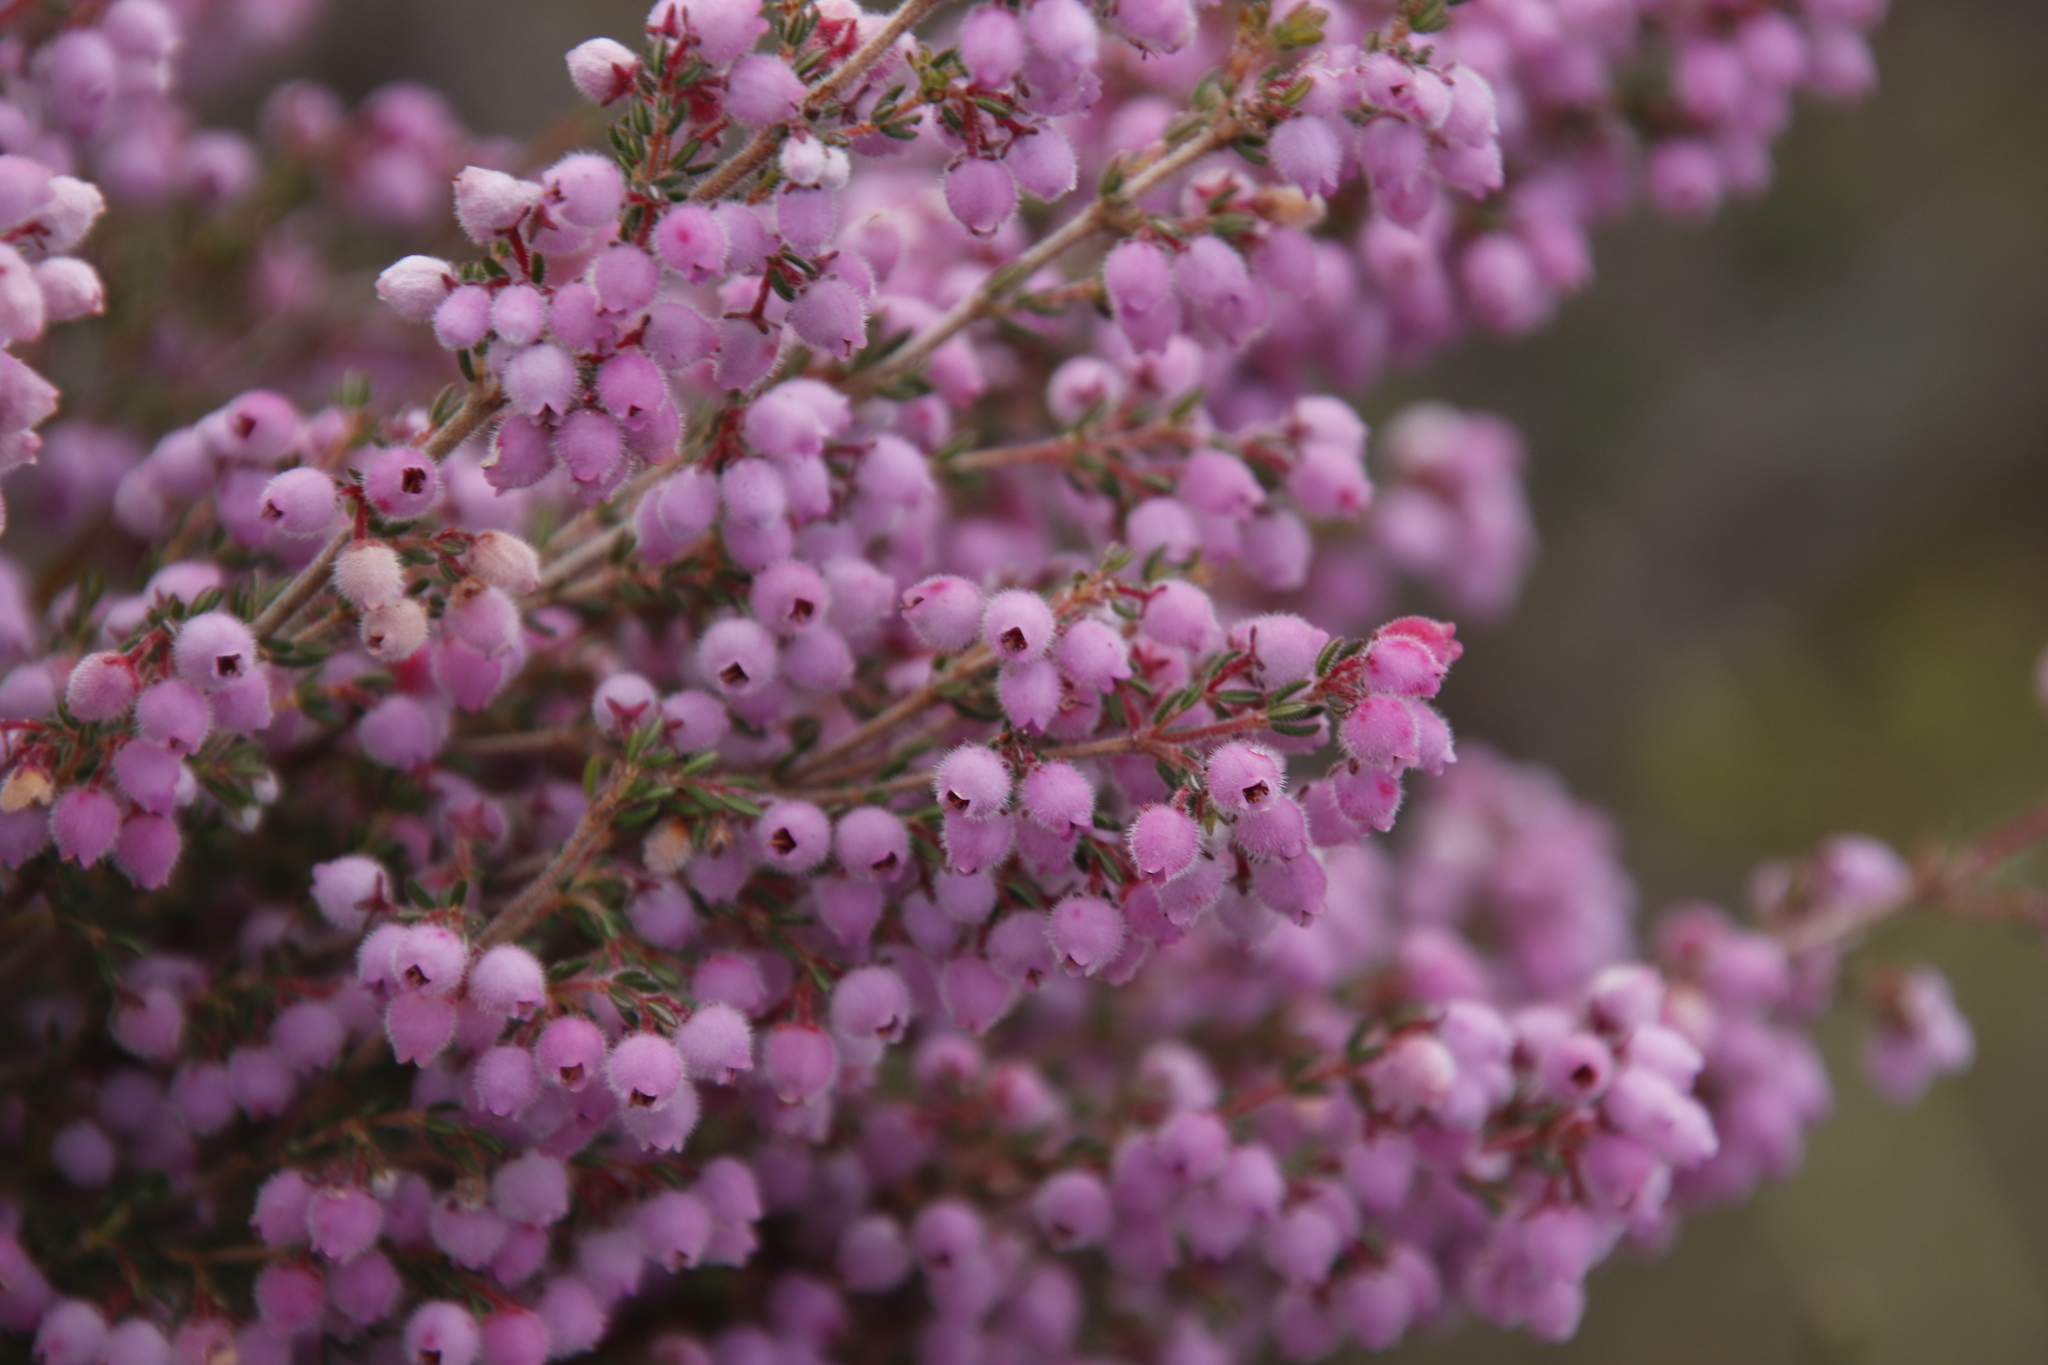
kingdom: Plantae
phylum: Tracheophyta
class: Magnoliopsida
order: Ericales
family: Ericaceae
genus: Erica
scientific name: Erica hirtiflora
